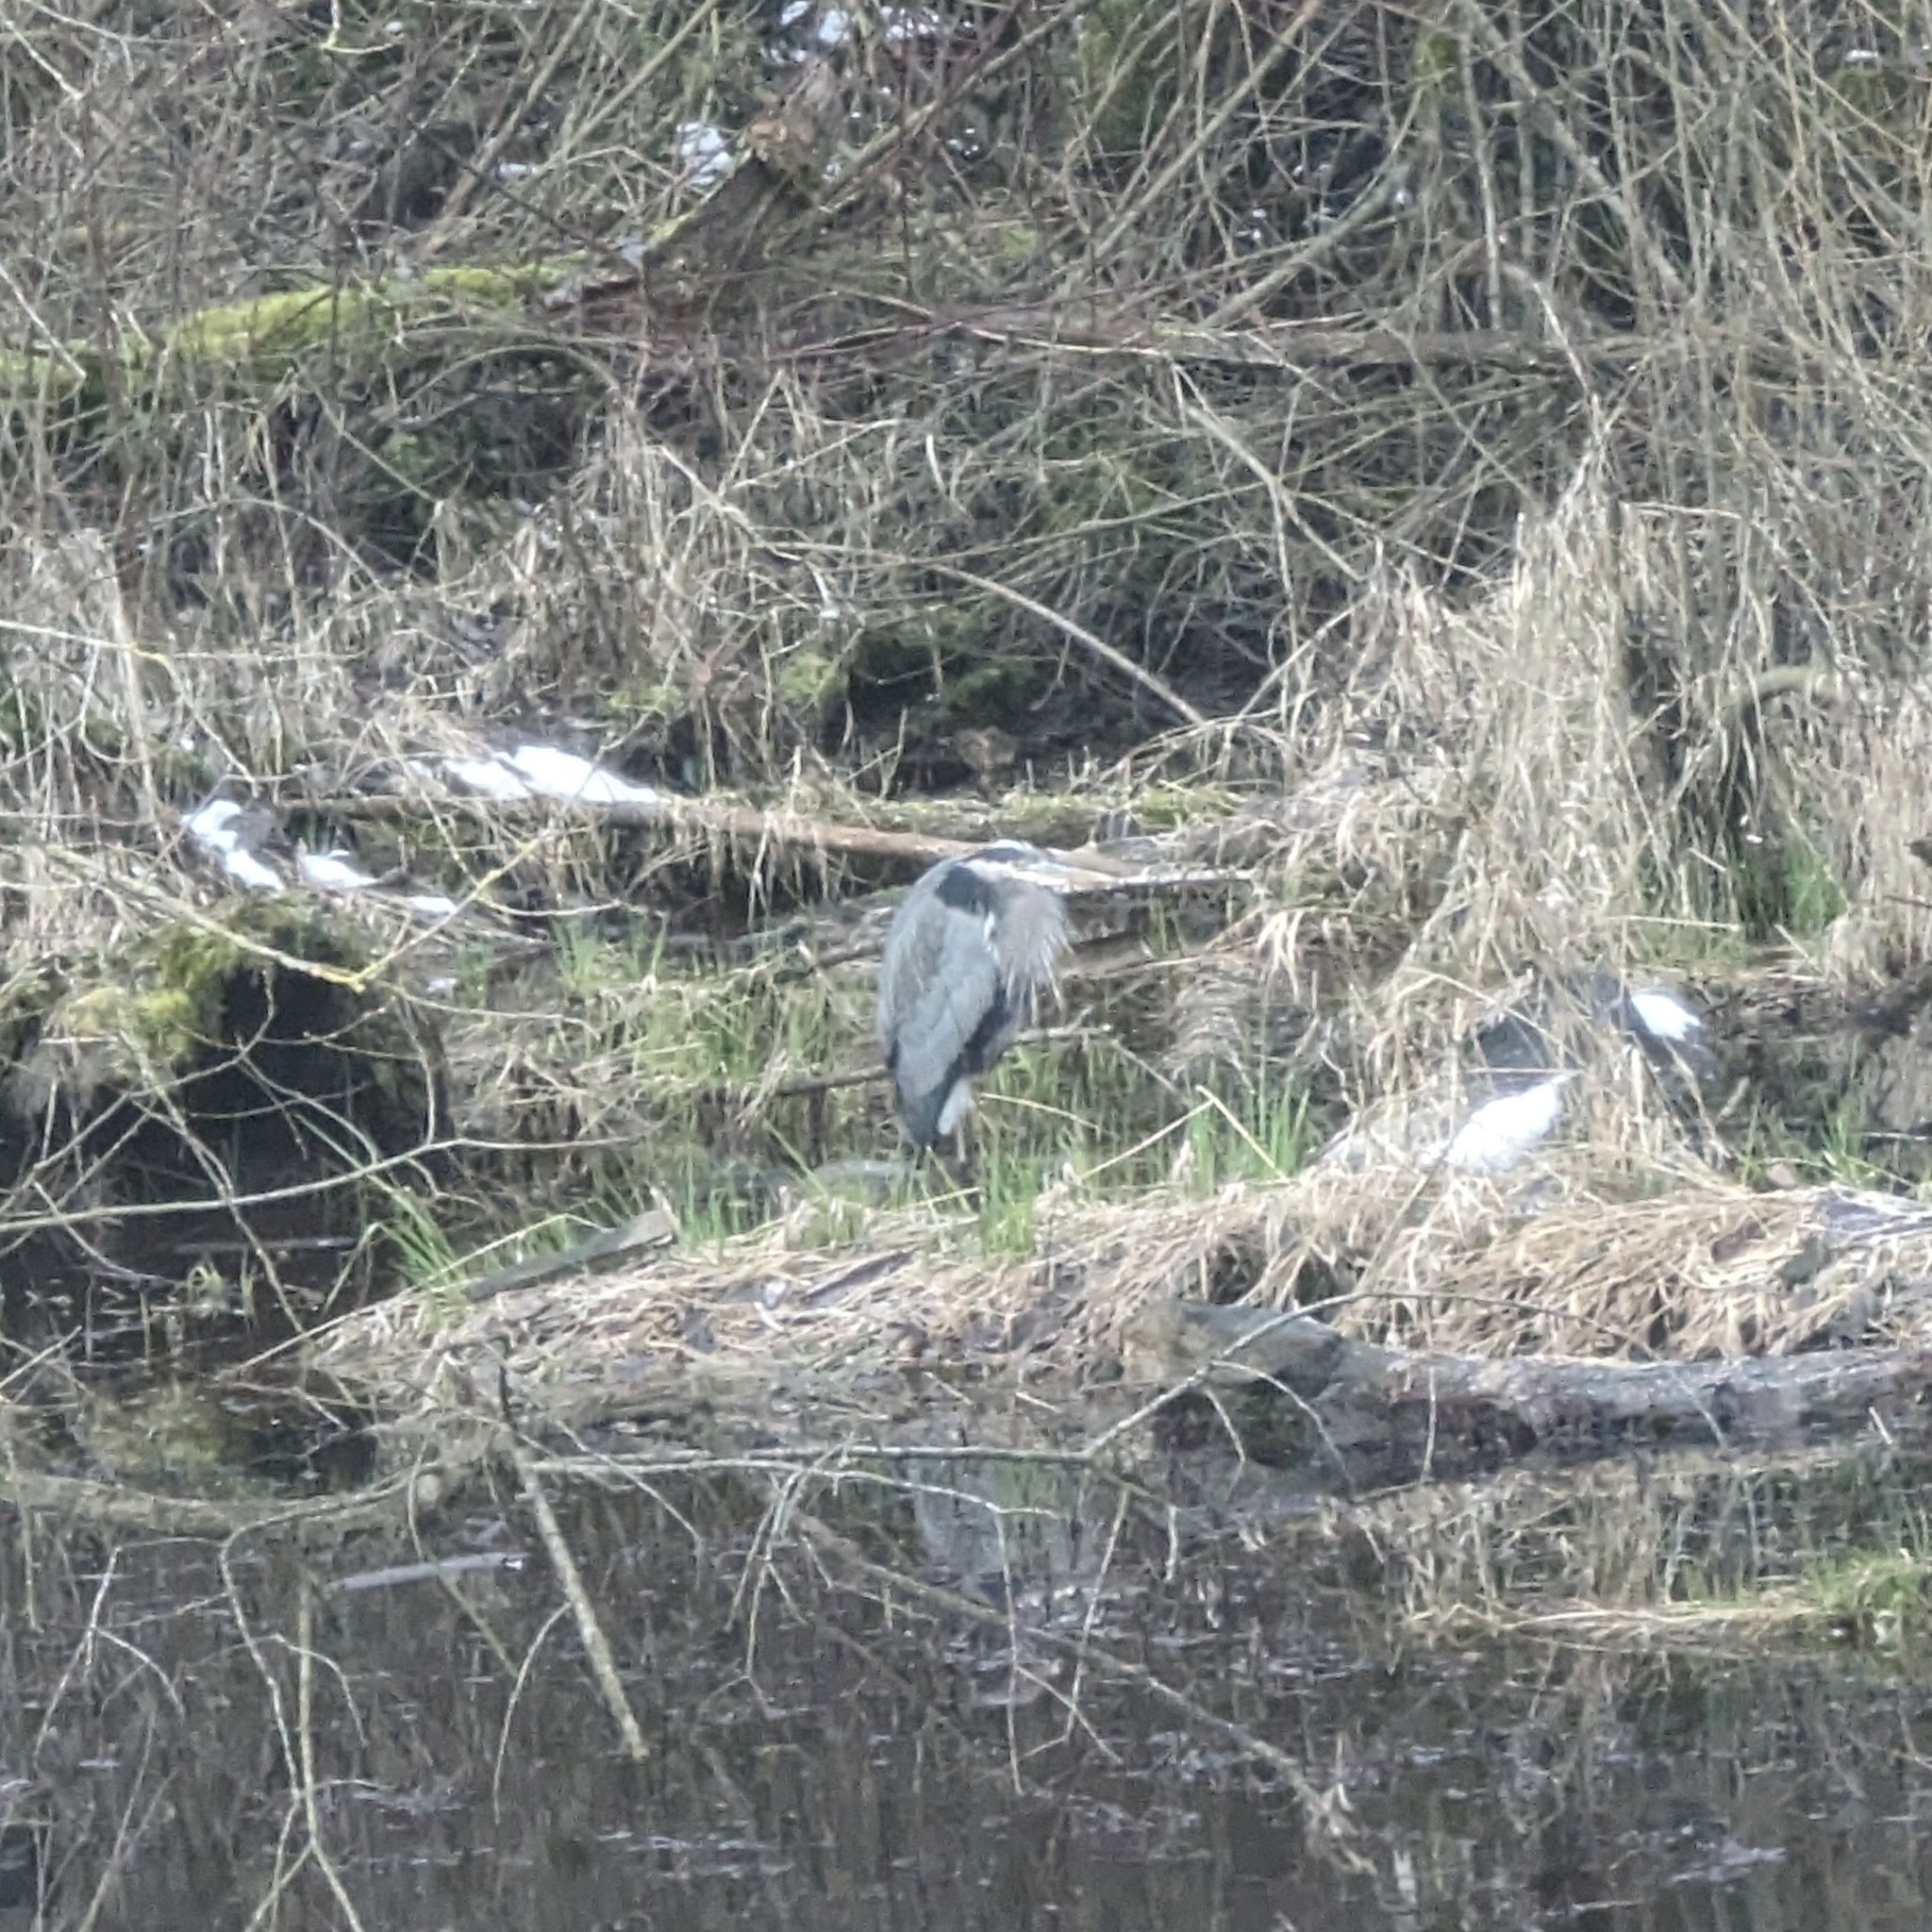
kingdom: Animalia
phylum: Chordata
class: Aves
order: Pelecaniformes
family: Ardeidae
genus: Ardea
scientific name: Ardea herodias
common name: Great blue heron
